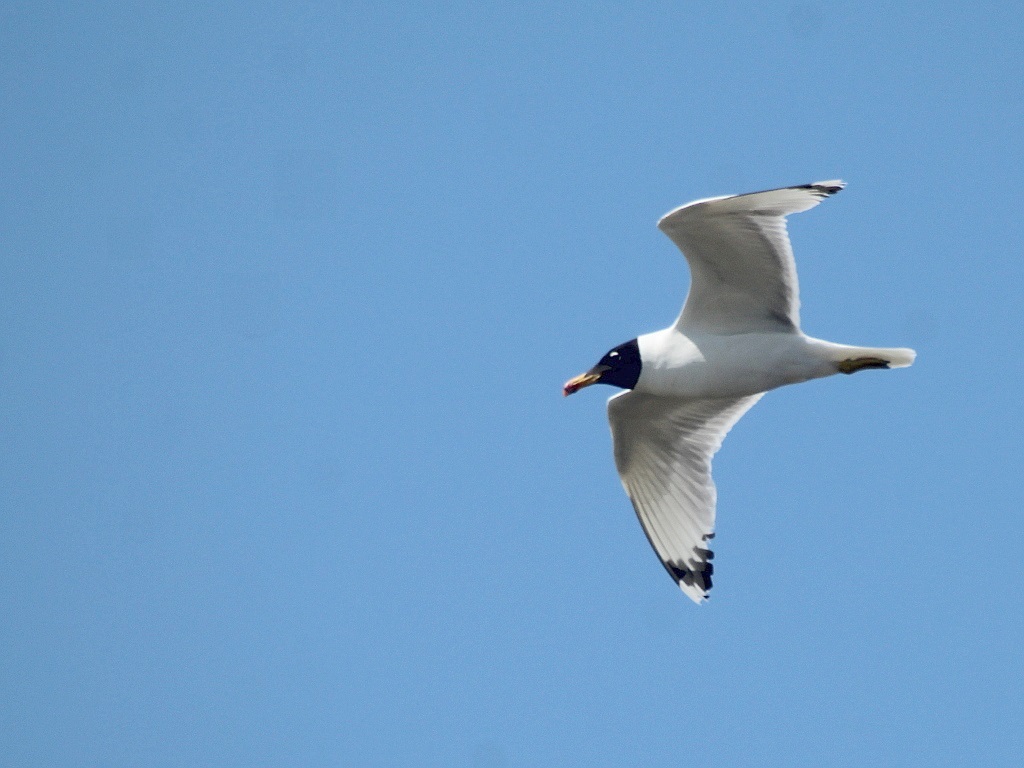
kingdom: Animalia
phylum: Chordata
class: Aves
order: Charadriiformes
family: Laridae
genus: Ichthyaetus
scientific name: Ichthyaetus ichthyaetus
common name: Pallas's gull
